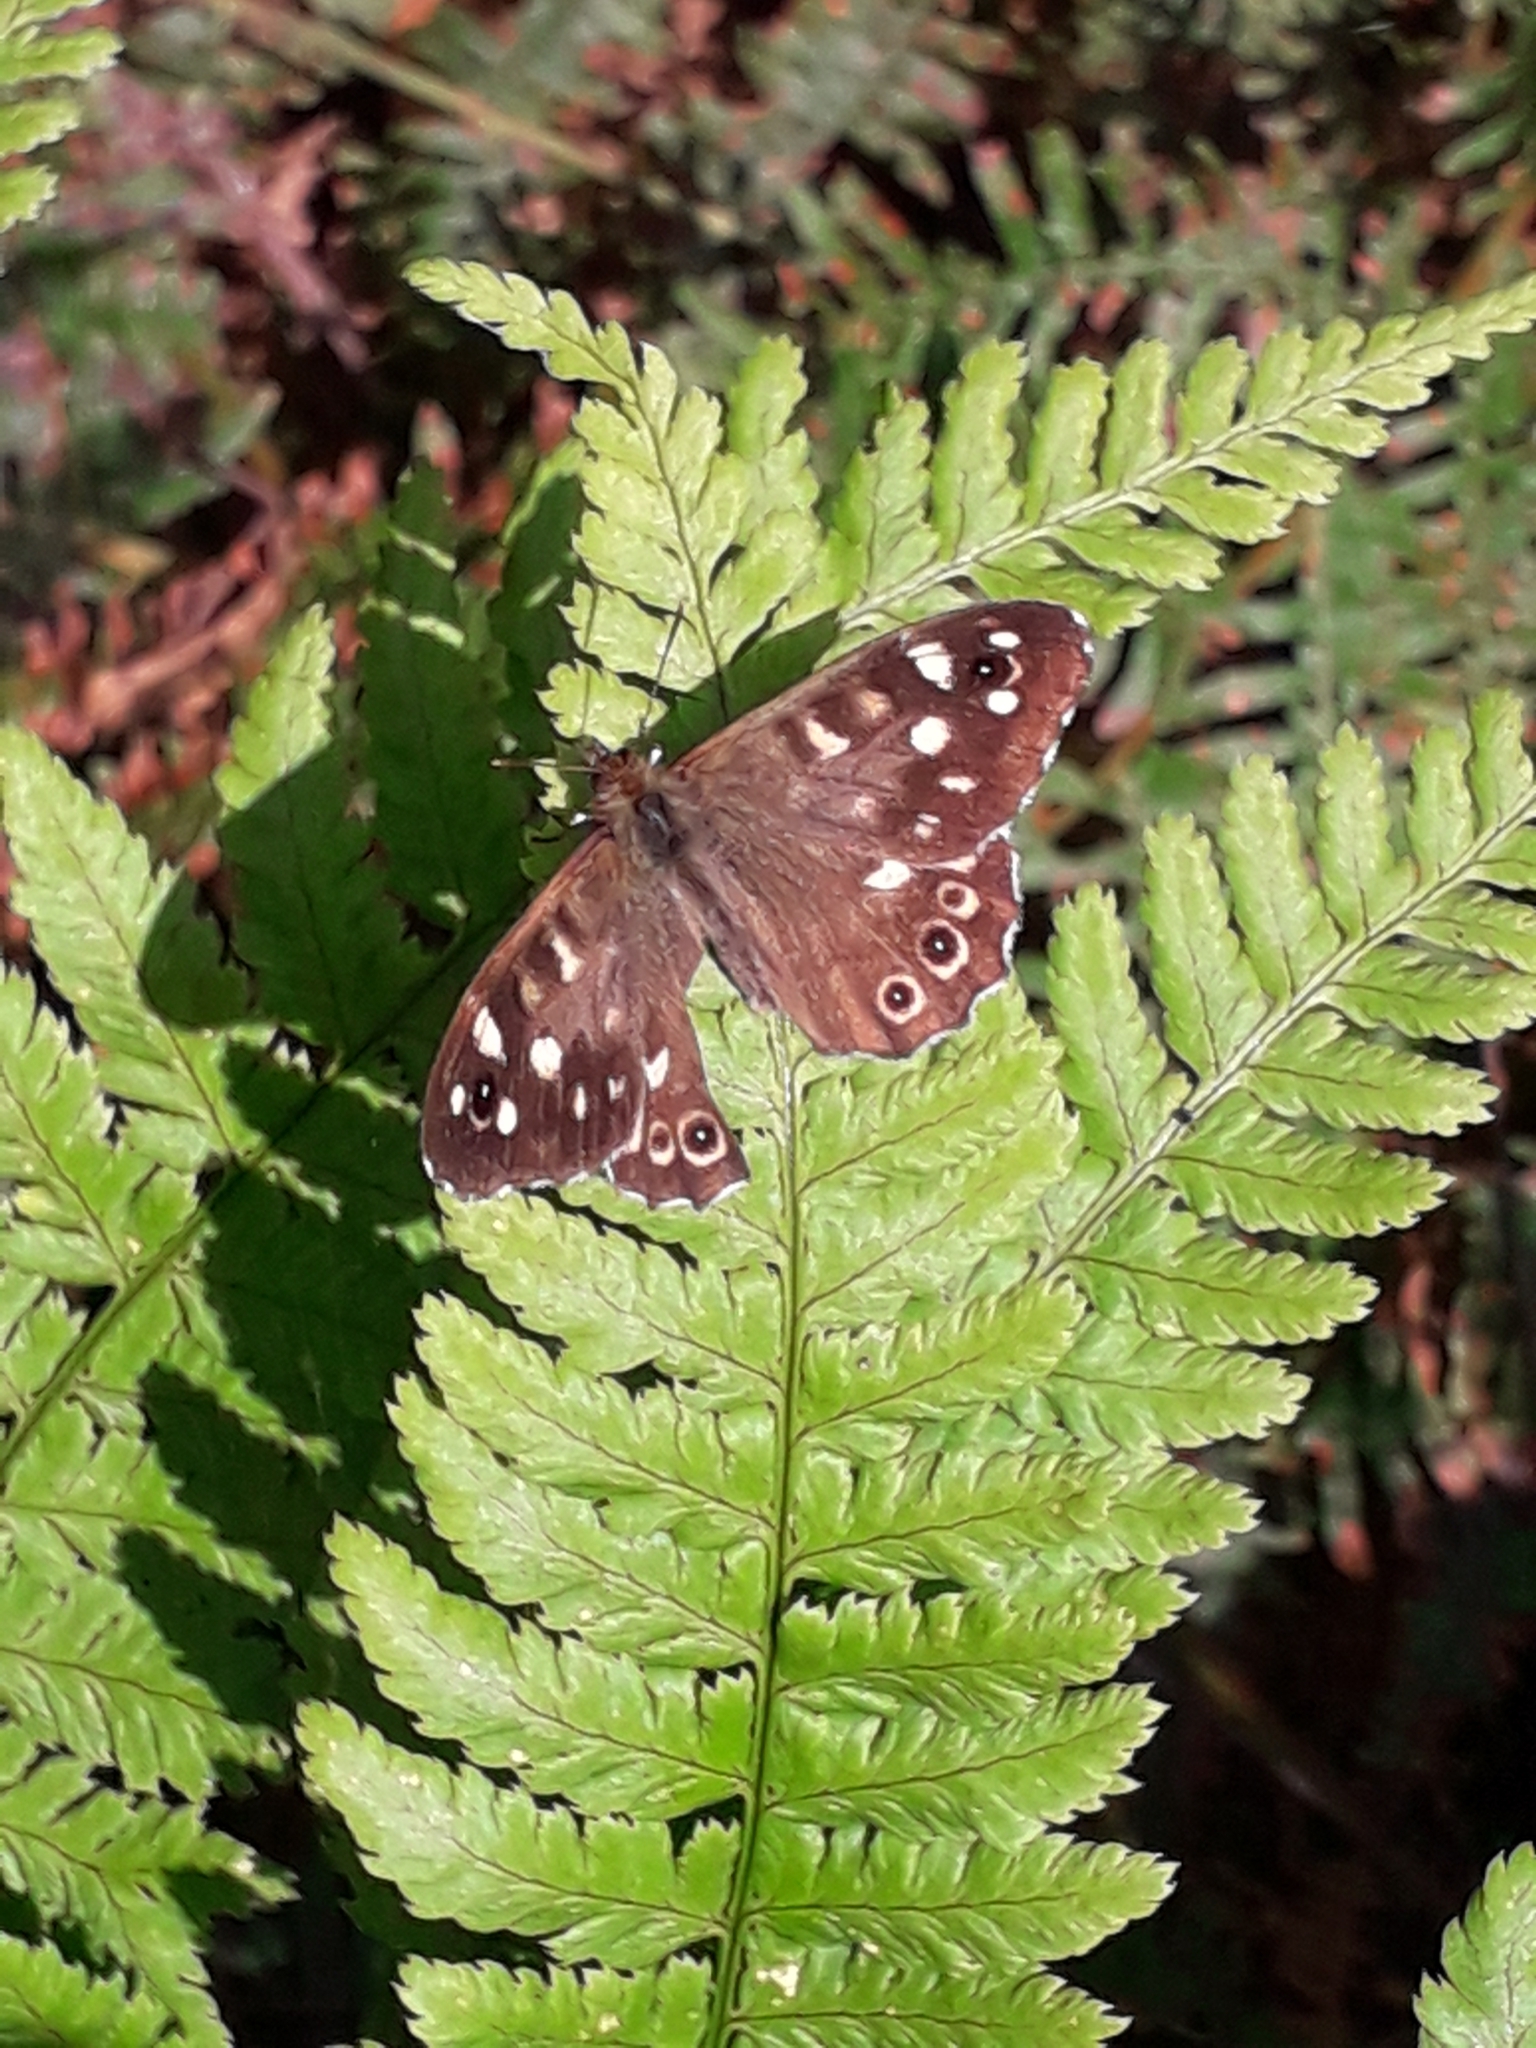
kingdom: Animalia
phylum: Arthropoda
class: Insecta
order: Lepidoptera
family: Nymphalidae
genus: Pararge
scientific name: Pararge aegeria
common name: Speckled wood
